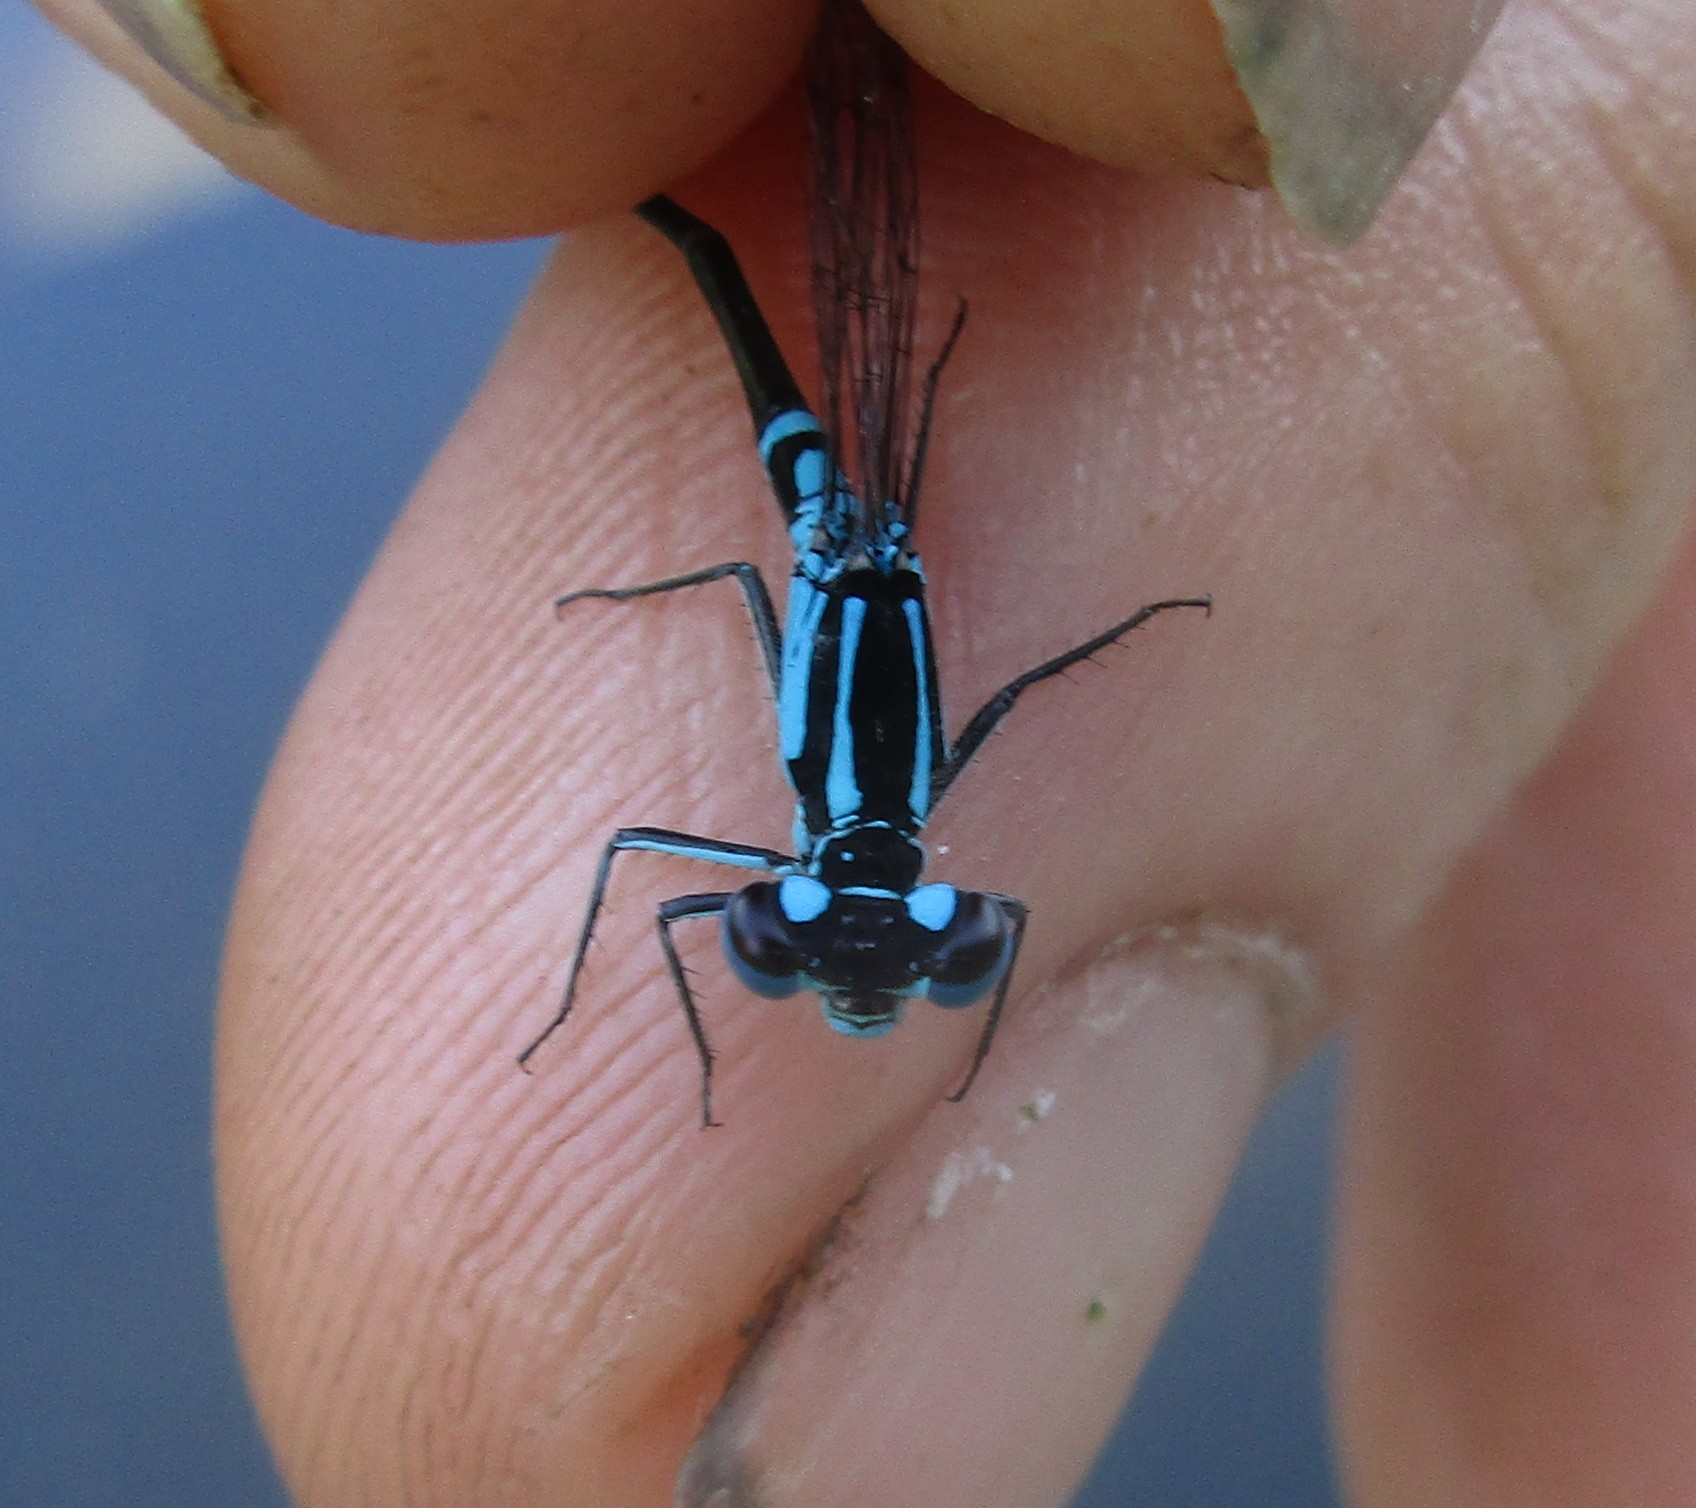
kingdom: Animalia
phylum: Arthropoda
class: Insecta
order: Odonata
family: Coenagrionidae
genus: Ischnura
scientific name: Ischnura kellicotti
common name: Lilypad forktail
